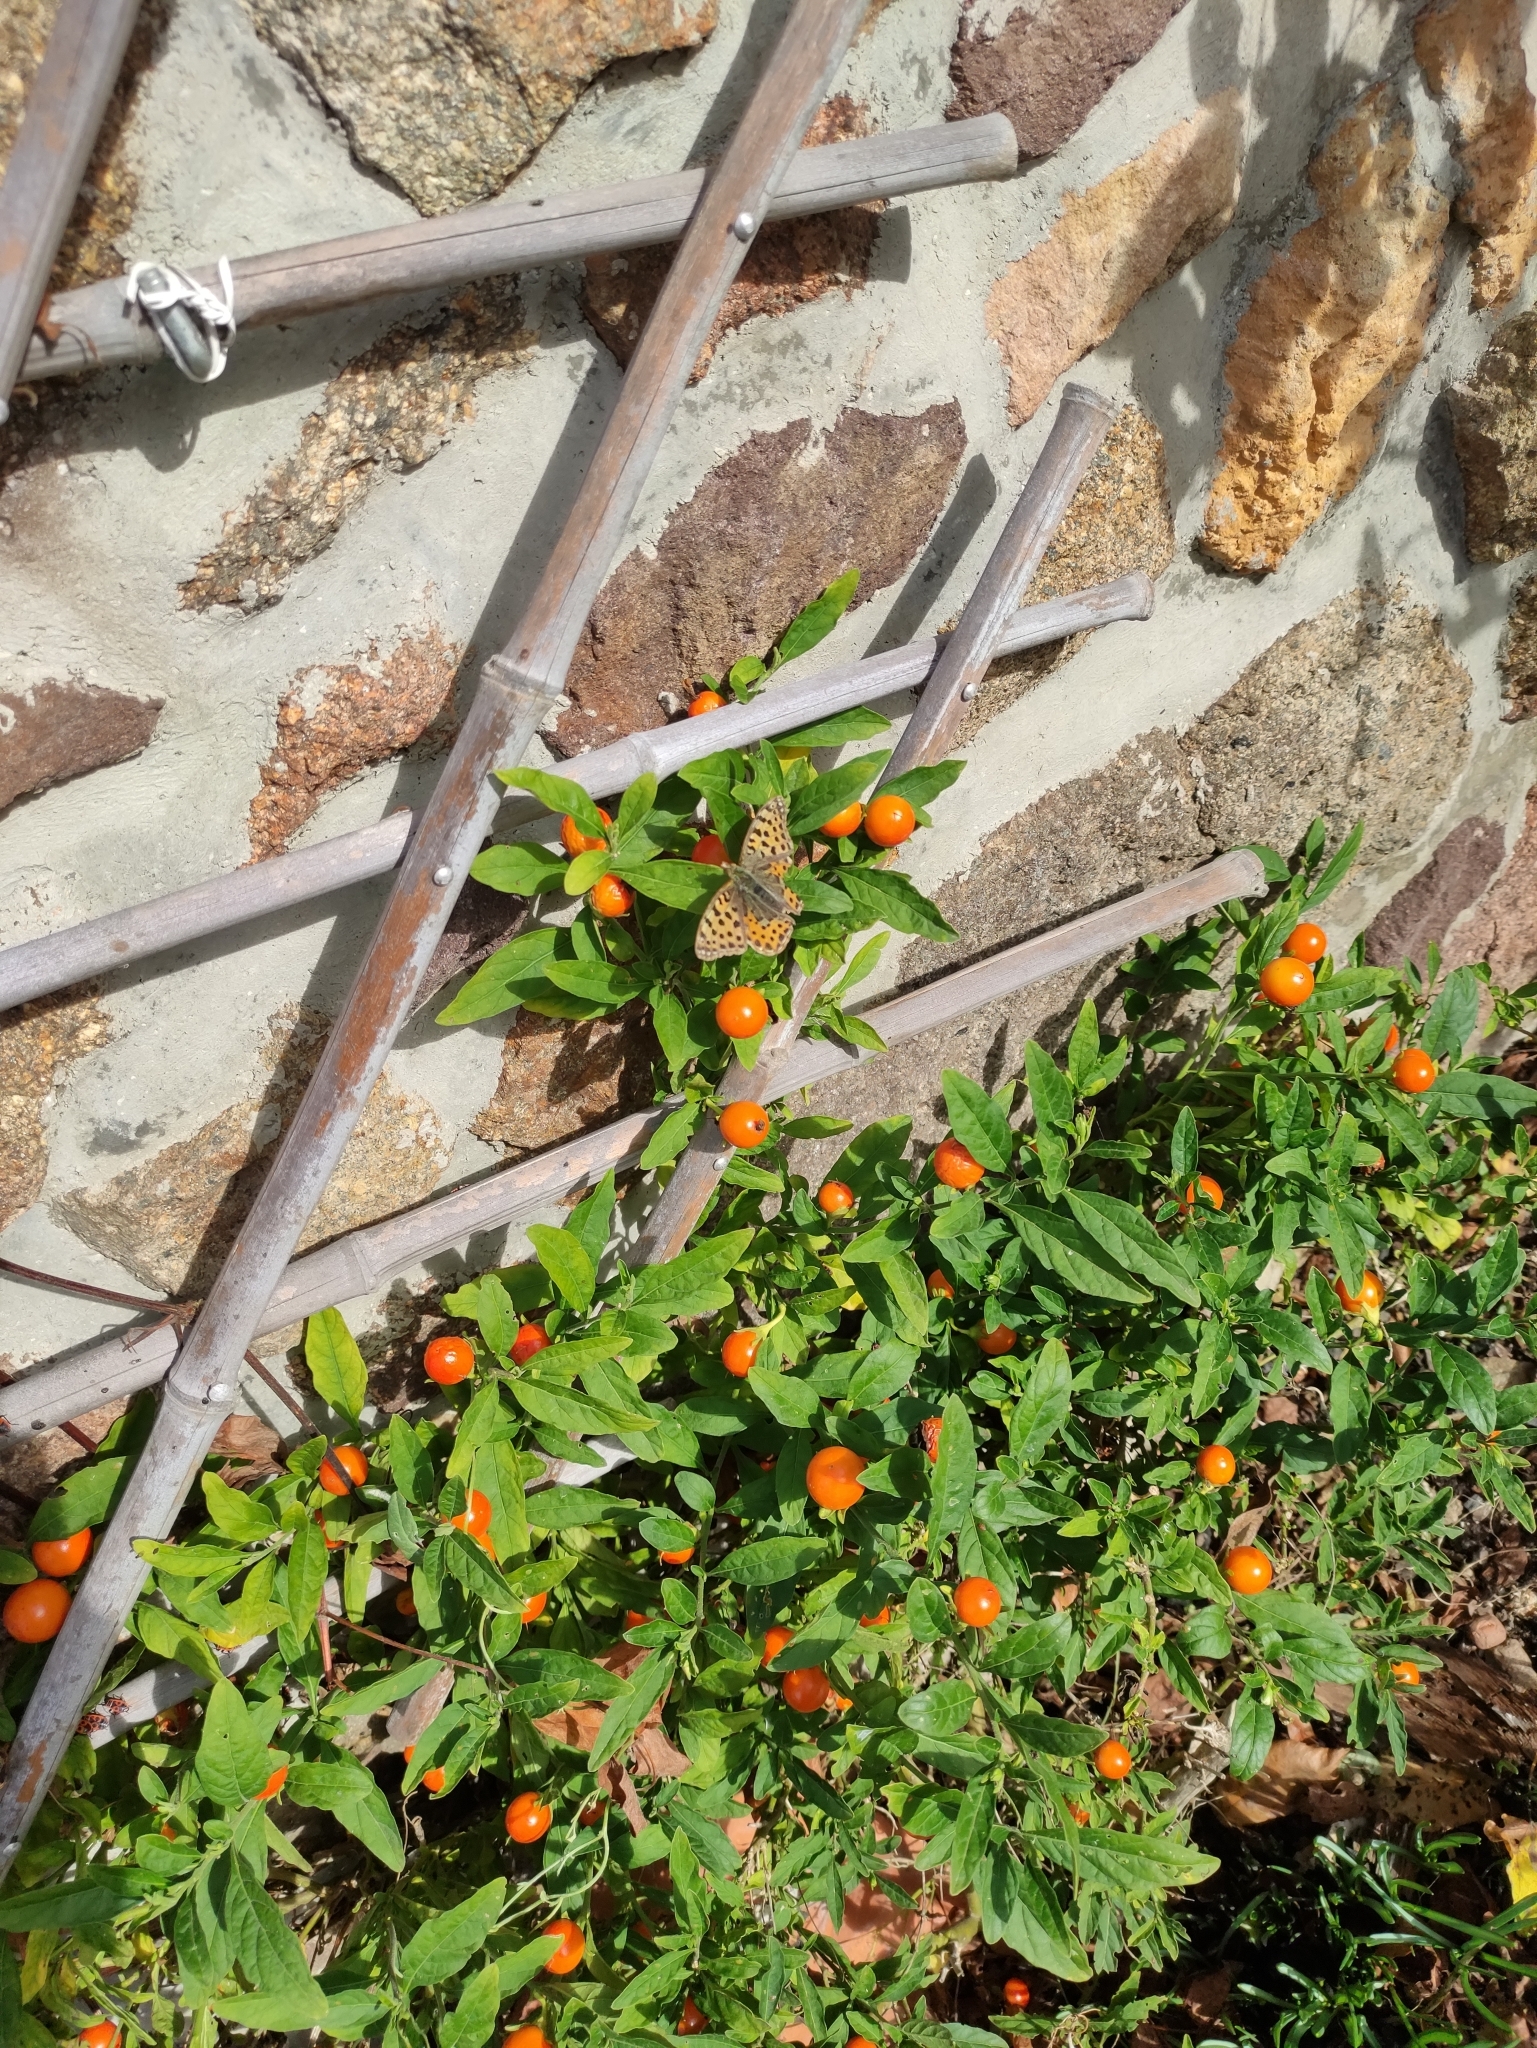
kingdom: Animalia
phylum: Arthropoda
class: Insecta
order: Lepidoptera
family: Nymphalidae
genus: Issoria
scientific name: Issoria lathonia
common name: Queen of spain fritillary
